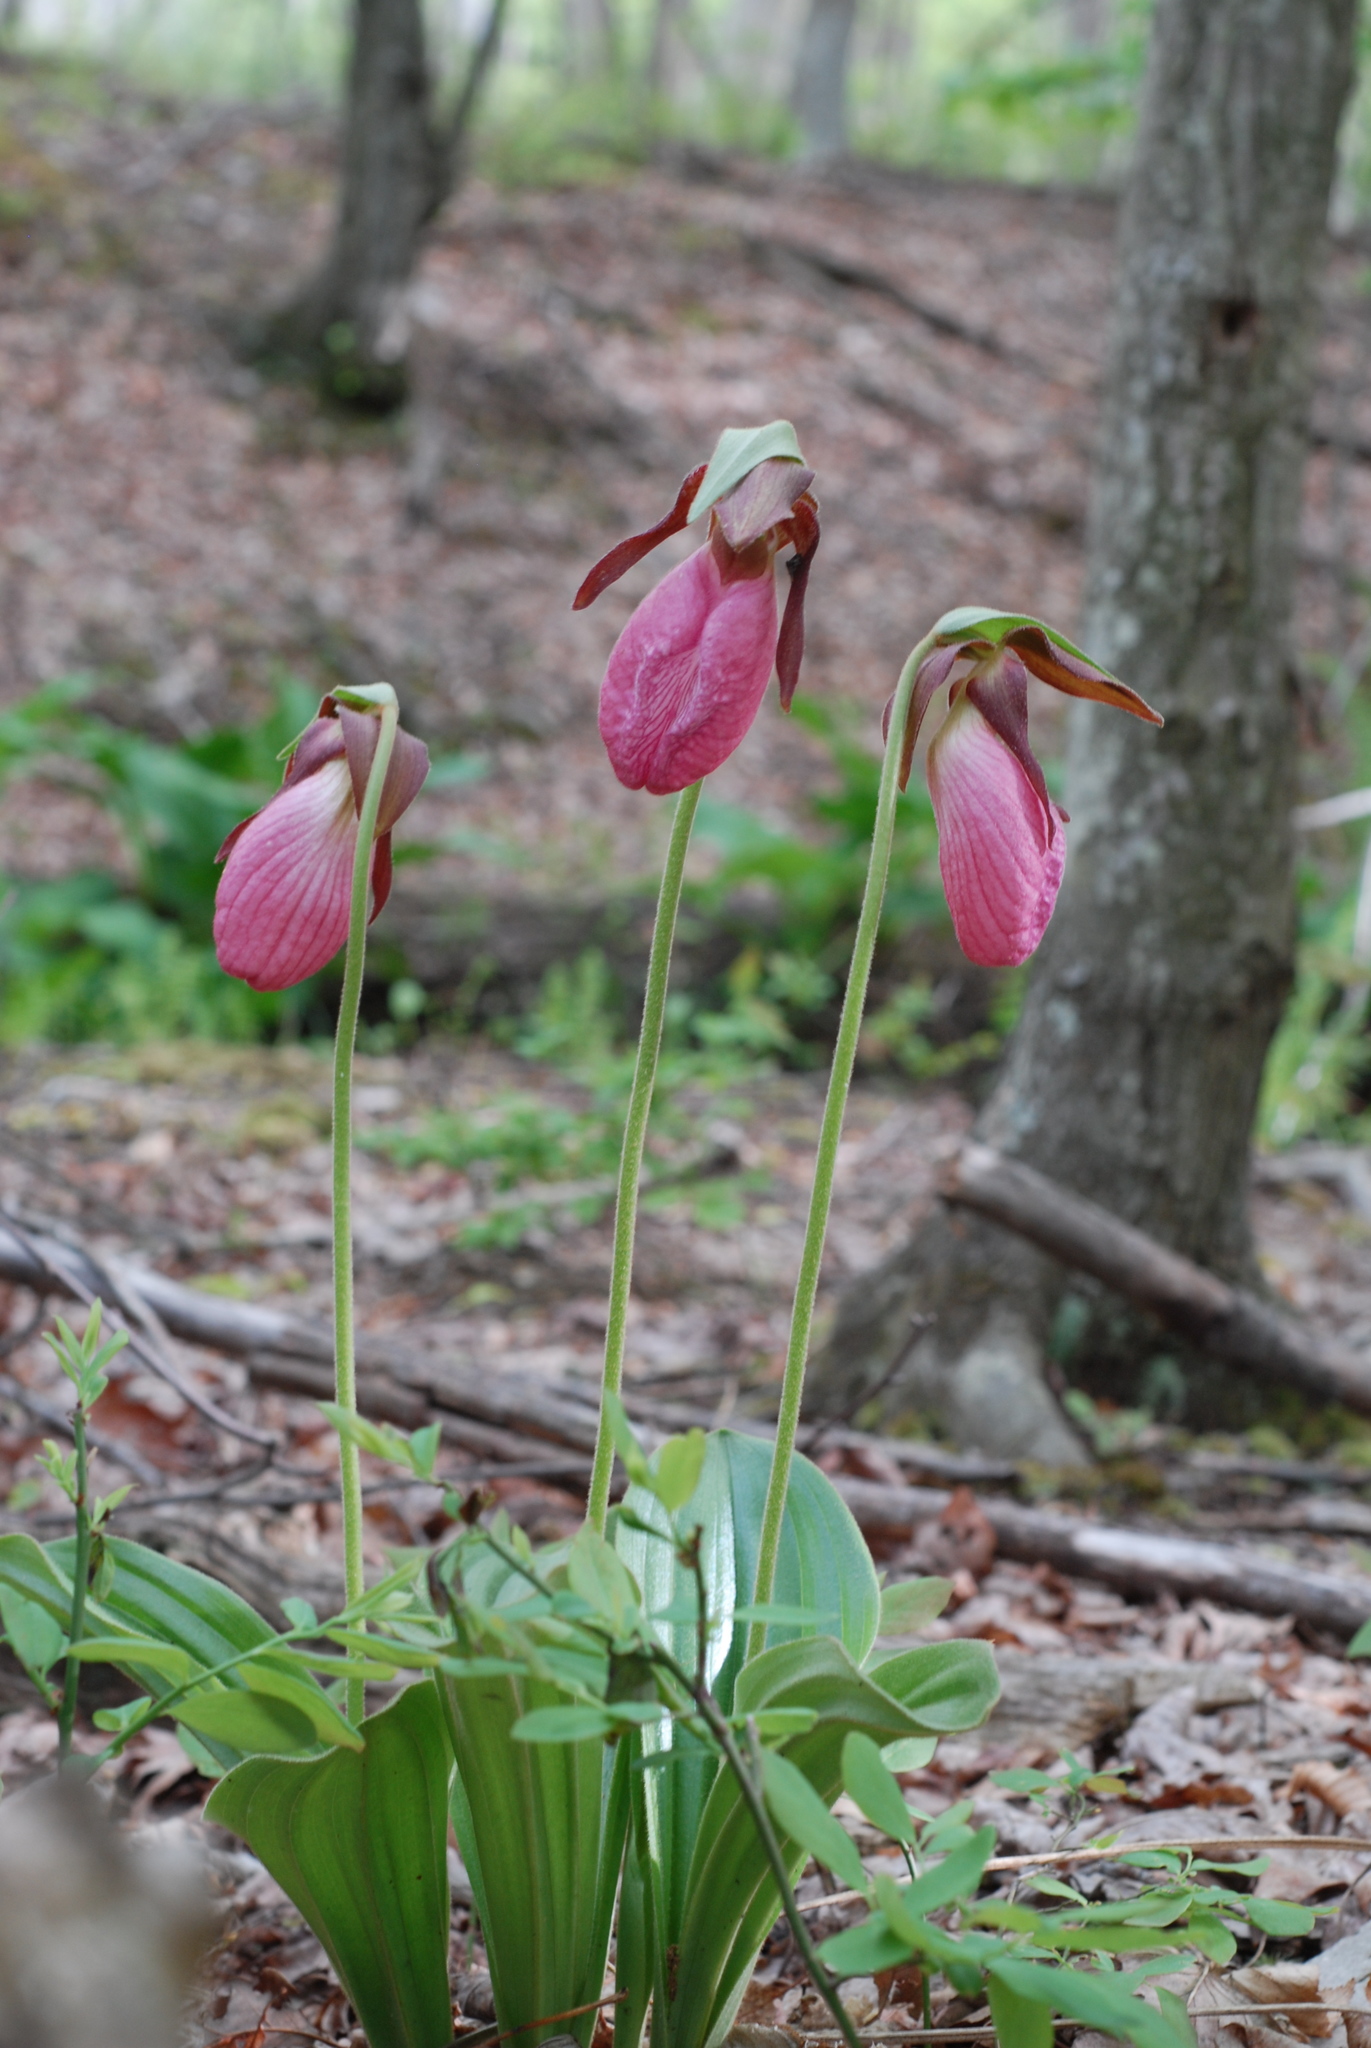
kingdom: Plantae
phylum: Tracheophyta
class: Liliopsida
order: Asparagales
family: Orchidaceae
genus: Cypripedium
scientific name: Cypripedium acaule
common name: Pink lady's-slipper
